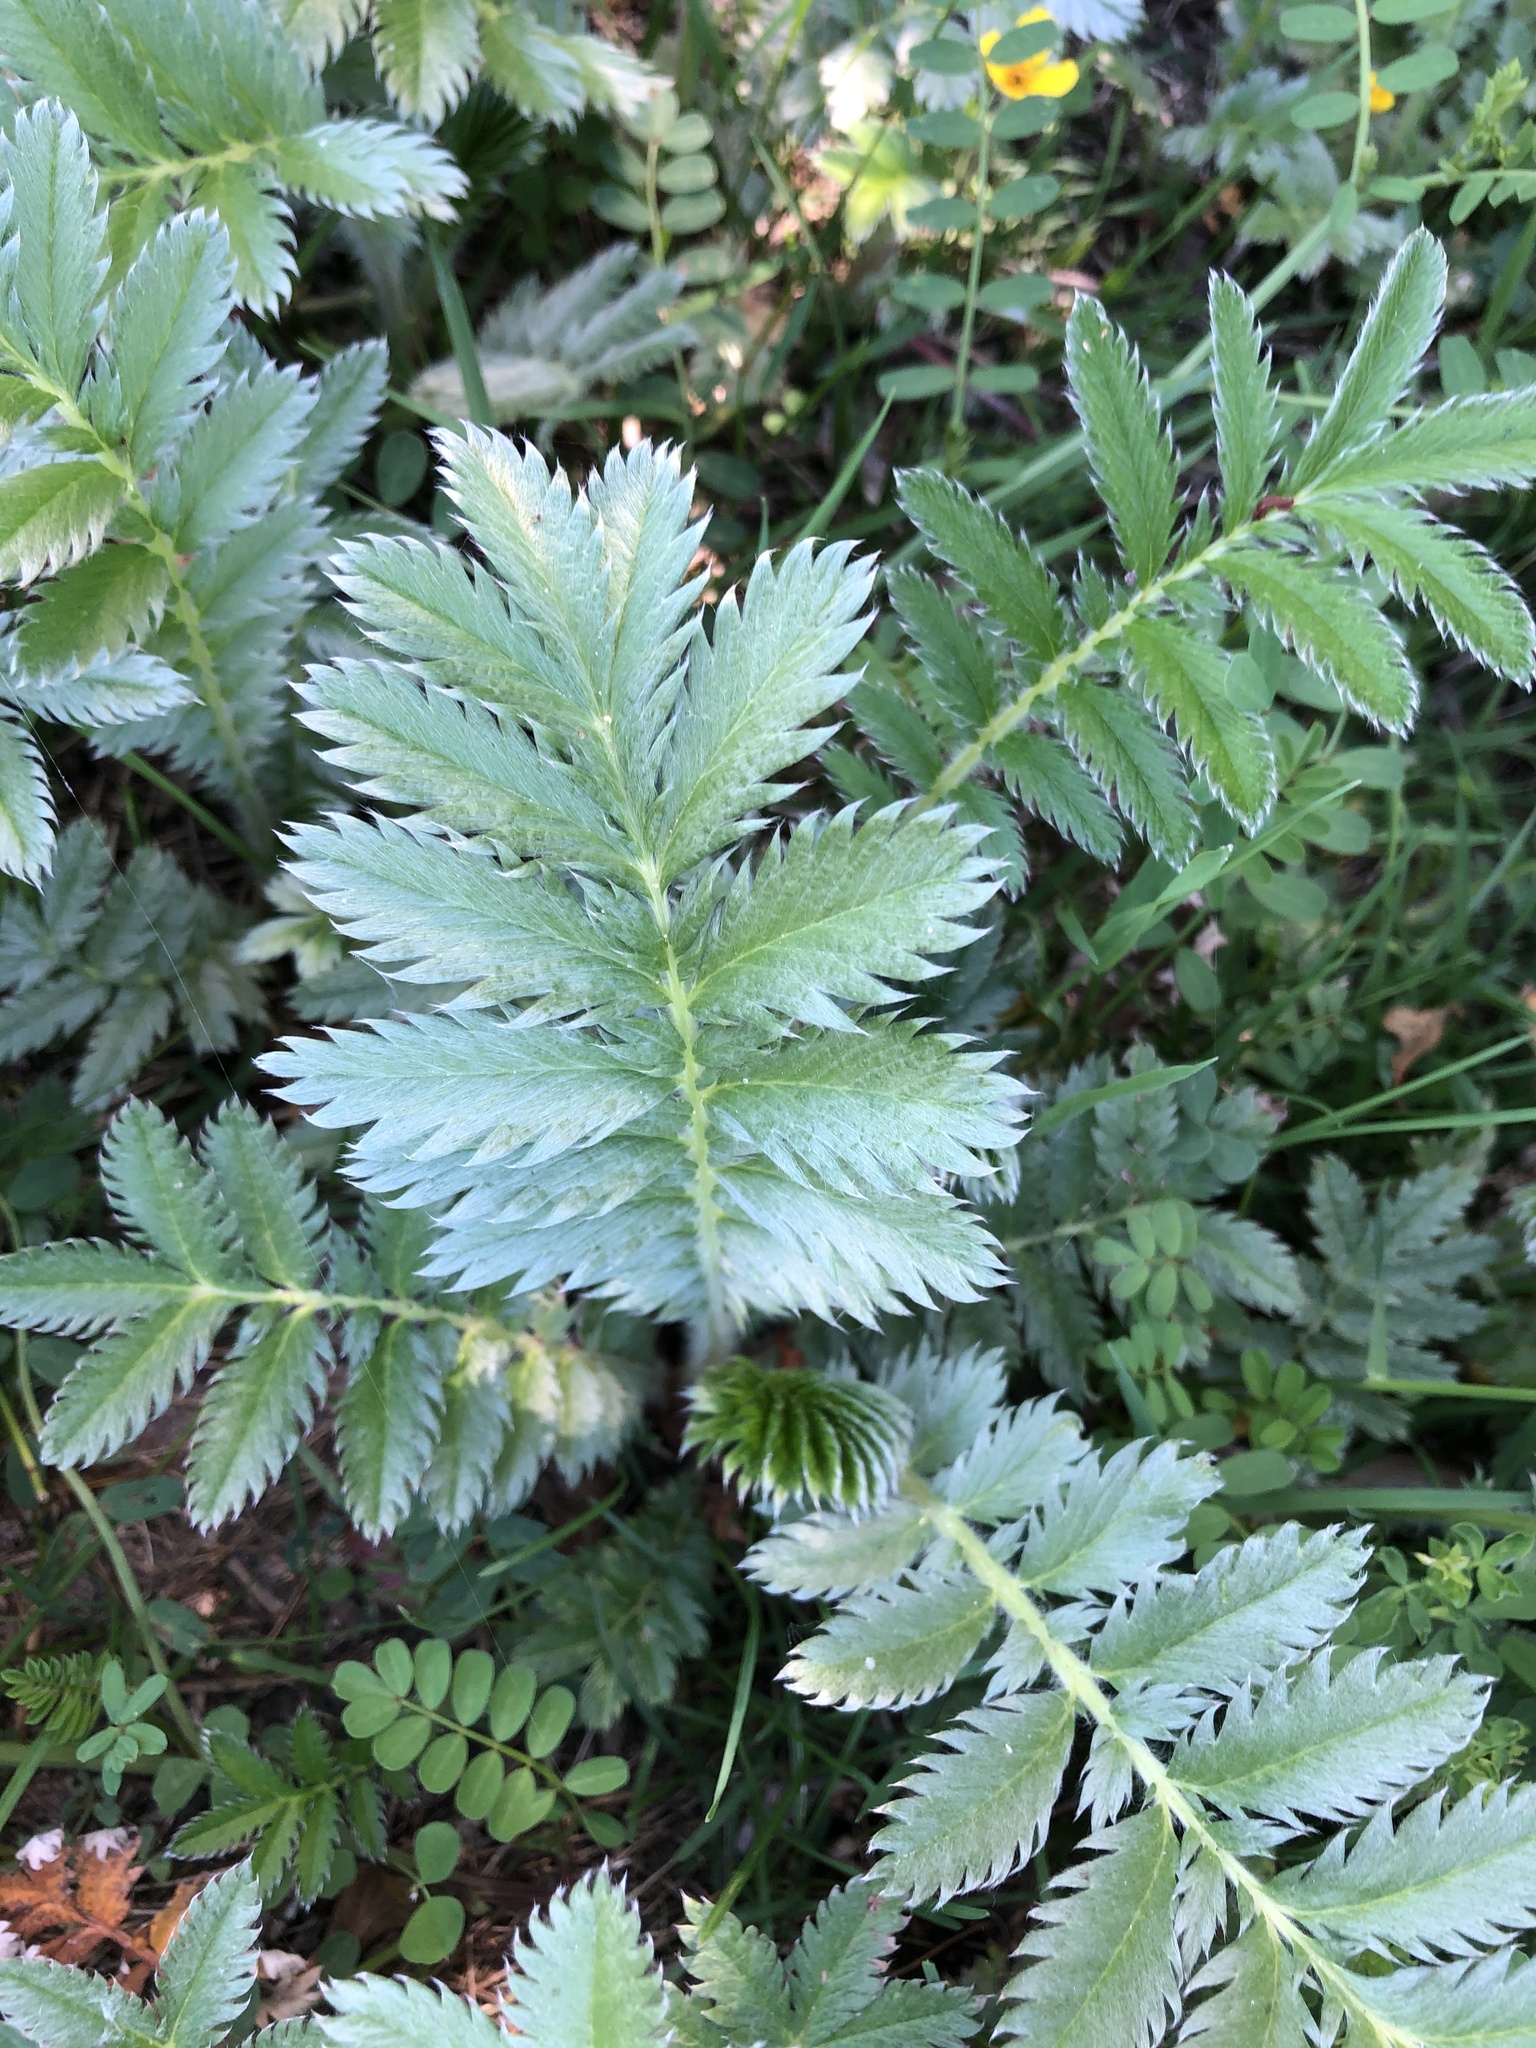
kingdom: Plantae
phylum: Tracheophyta
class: Magnoliopsida
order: Rosales
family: Rosaceae
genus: Argentina
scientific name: Argentina anserina
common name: Common silverweed
